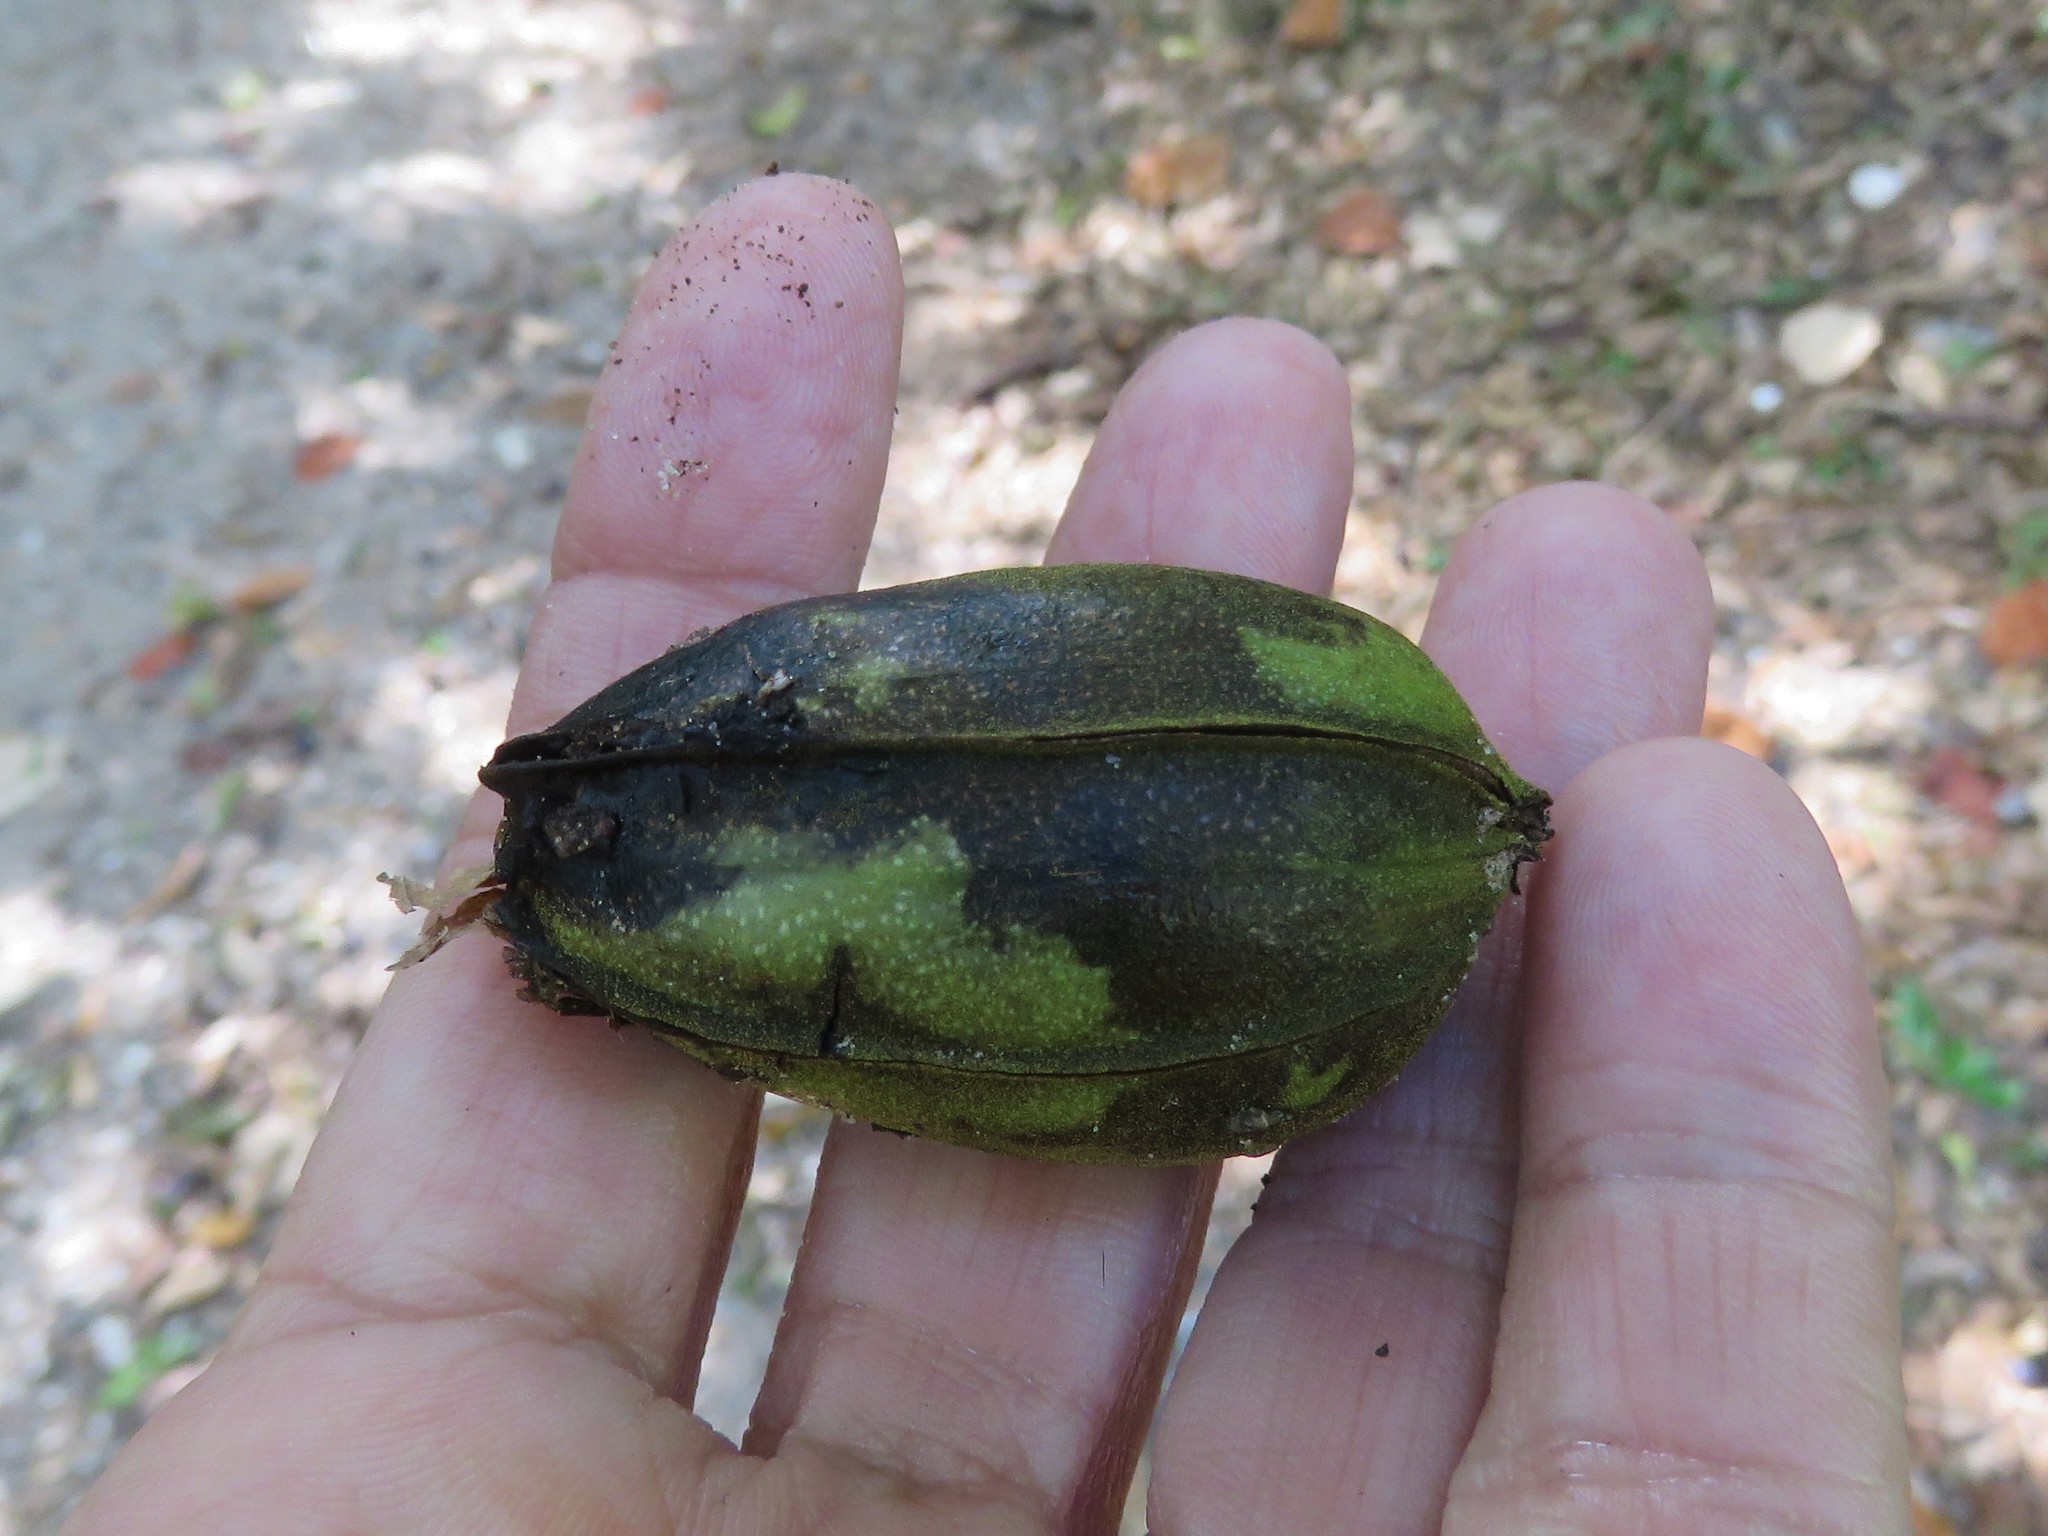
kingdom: Plantae
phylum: Tracheophyta
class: Magnoliopsida
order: Fagales
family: Juglandaceae
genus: Carya
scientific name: Carya illinoinensis
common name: Pecan
